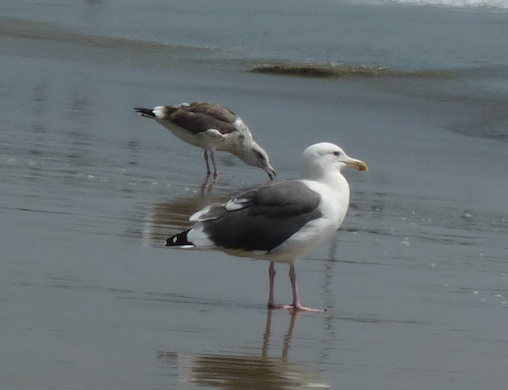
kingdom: Animalia
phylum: Chordata
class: Aves
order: Charadriiformes
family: Laridae
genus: Larus
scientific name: Larus occidentalis
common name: Western gull
